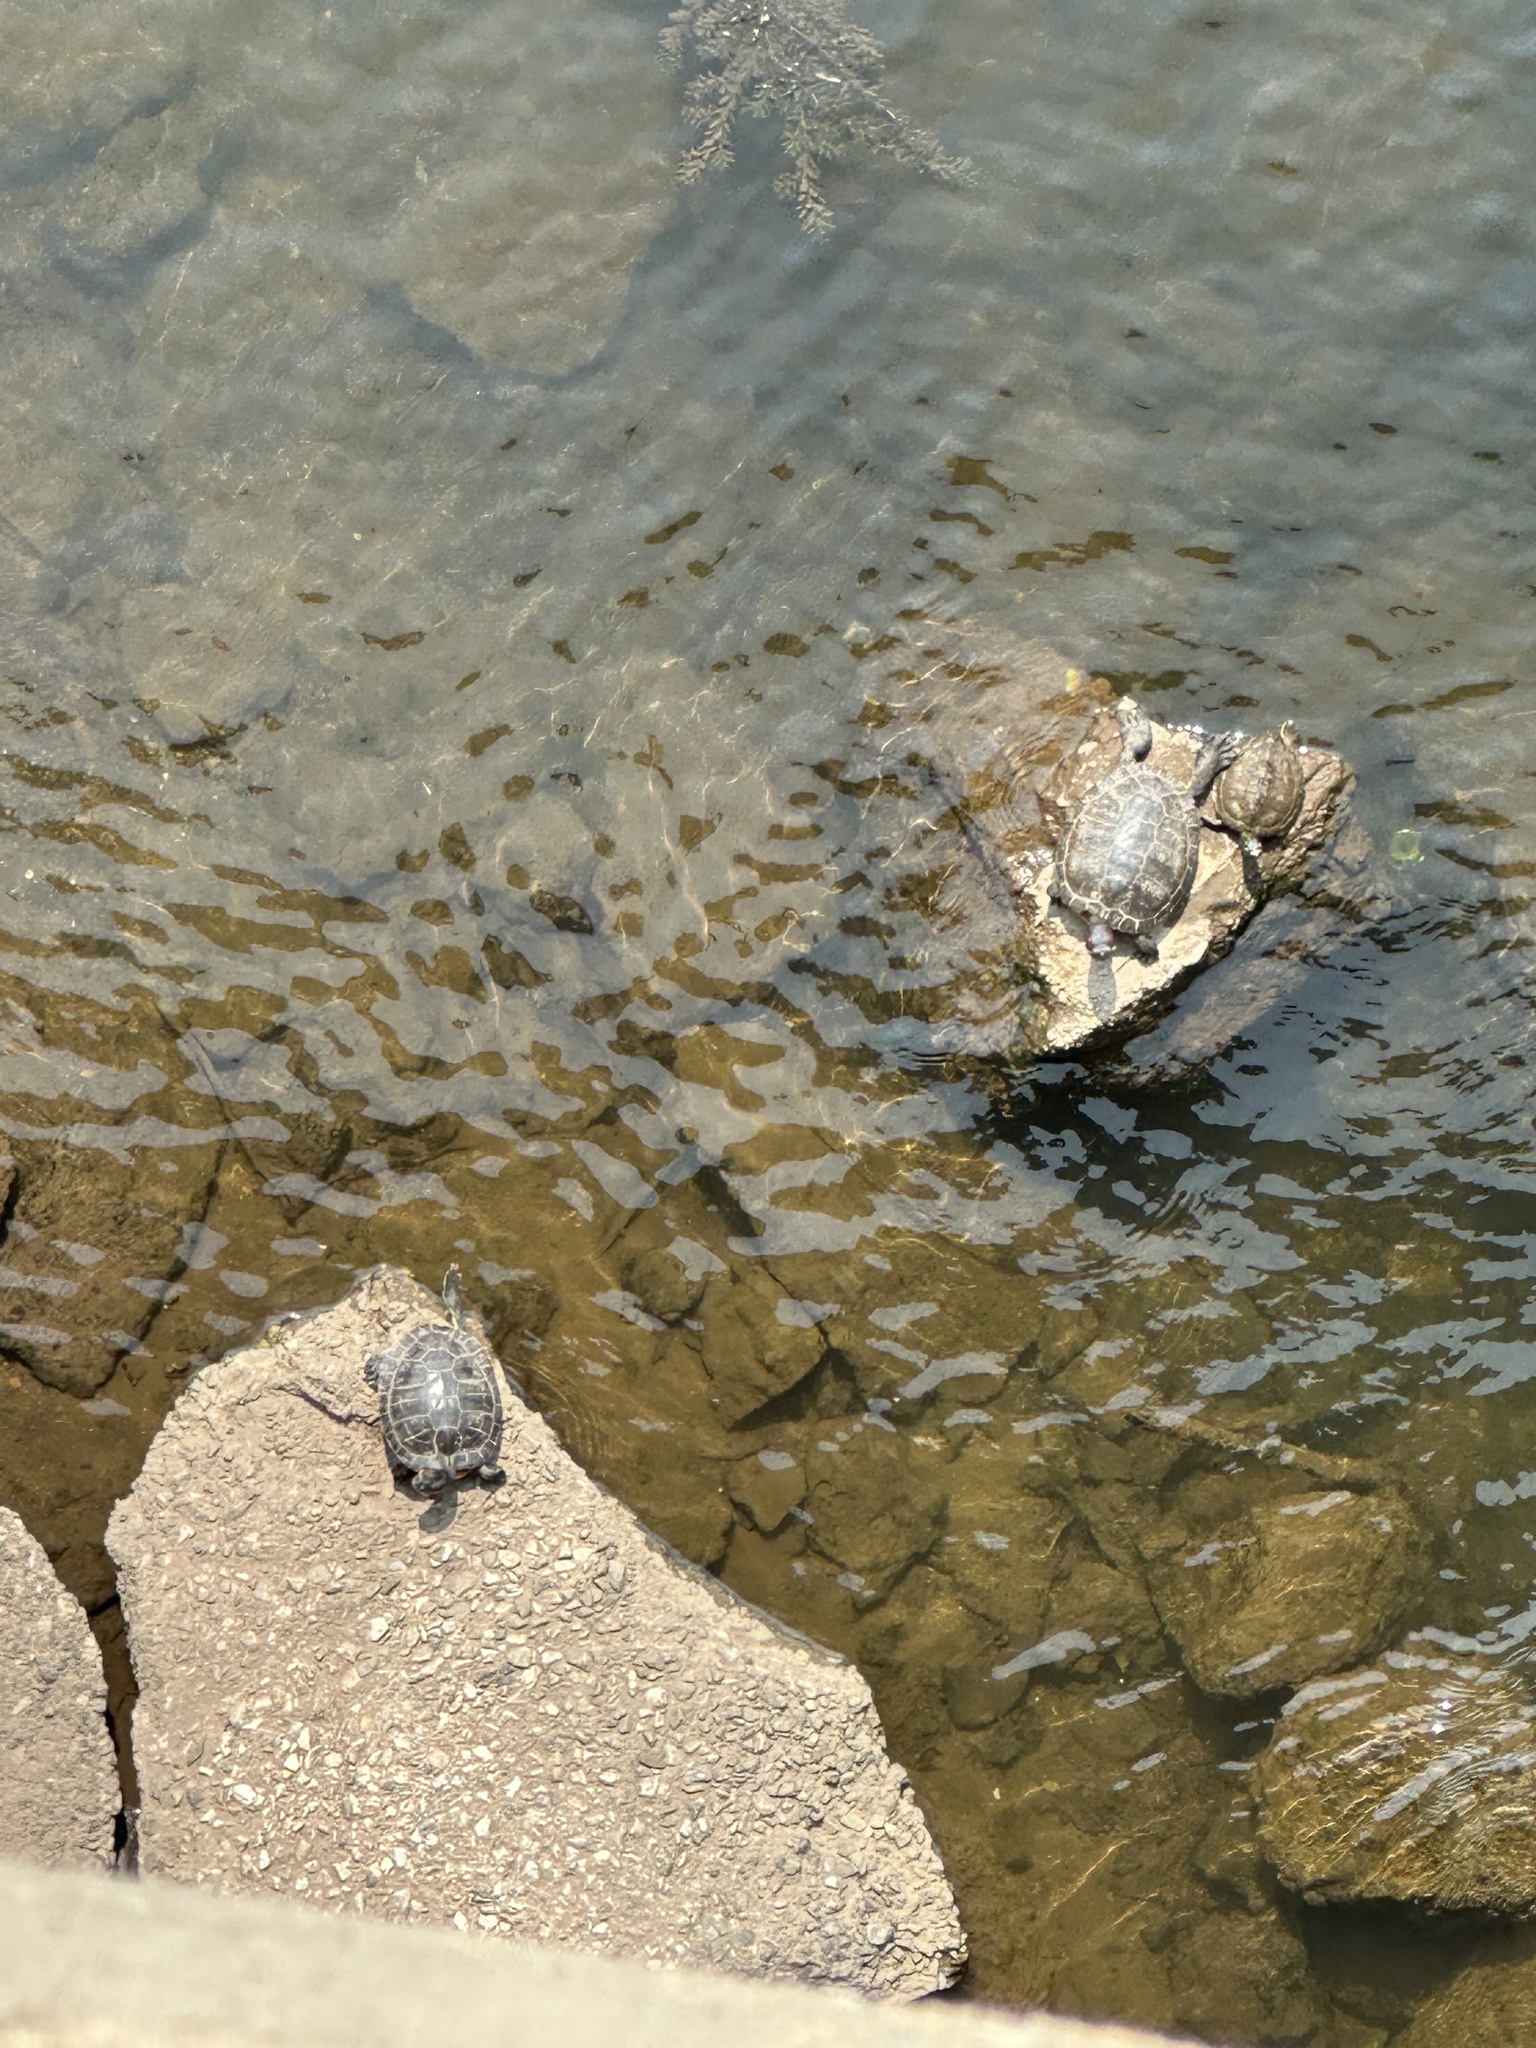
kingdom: Animalia
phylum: Chordata
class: Testudines
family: Emydidae
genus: Trachemys
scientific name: Trachemys scripta
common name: Slider
